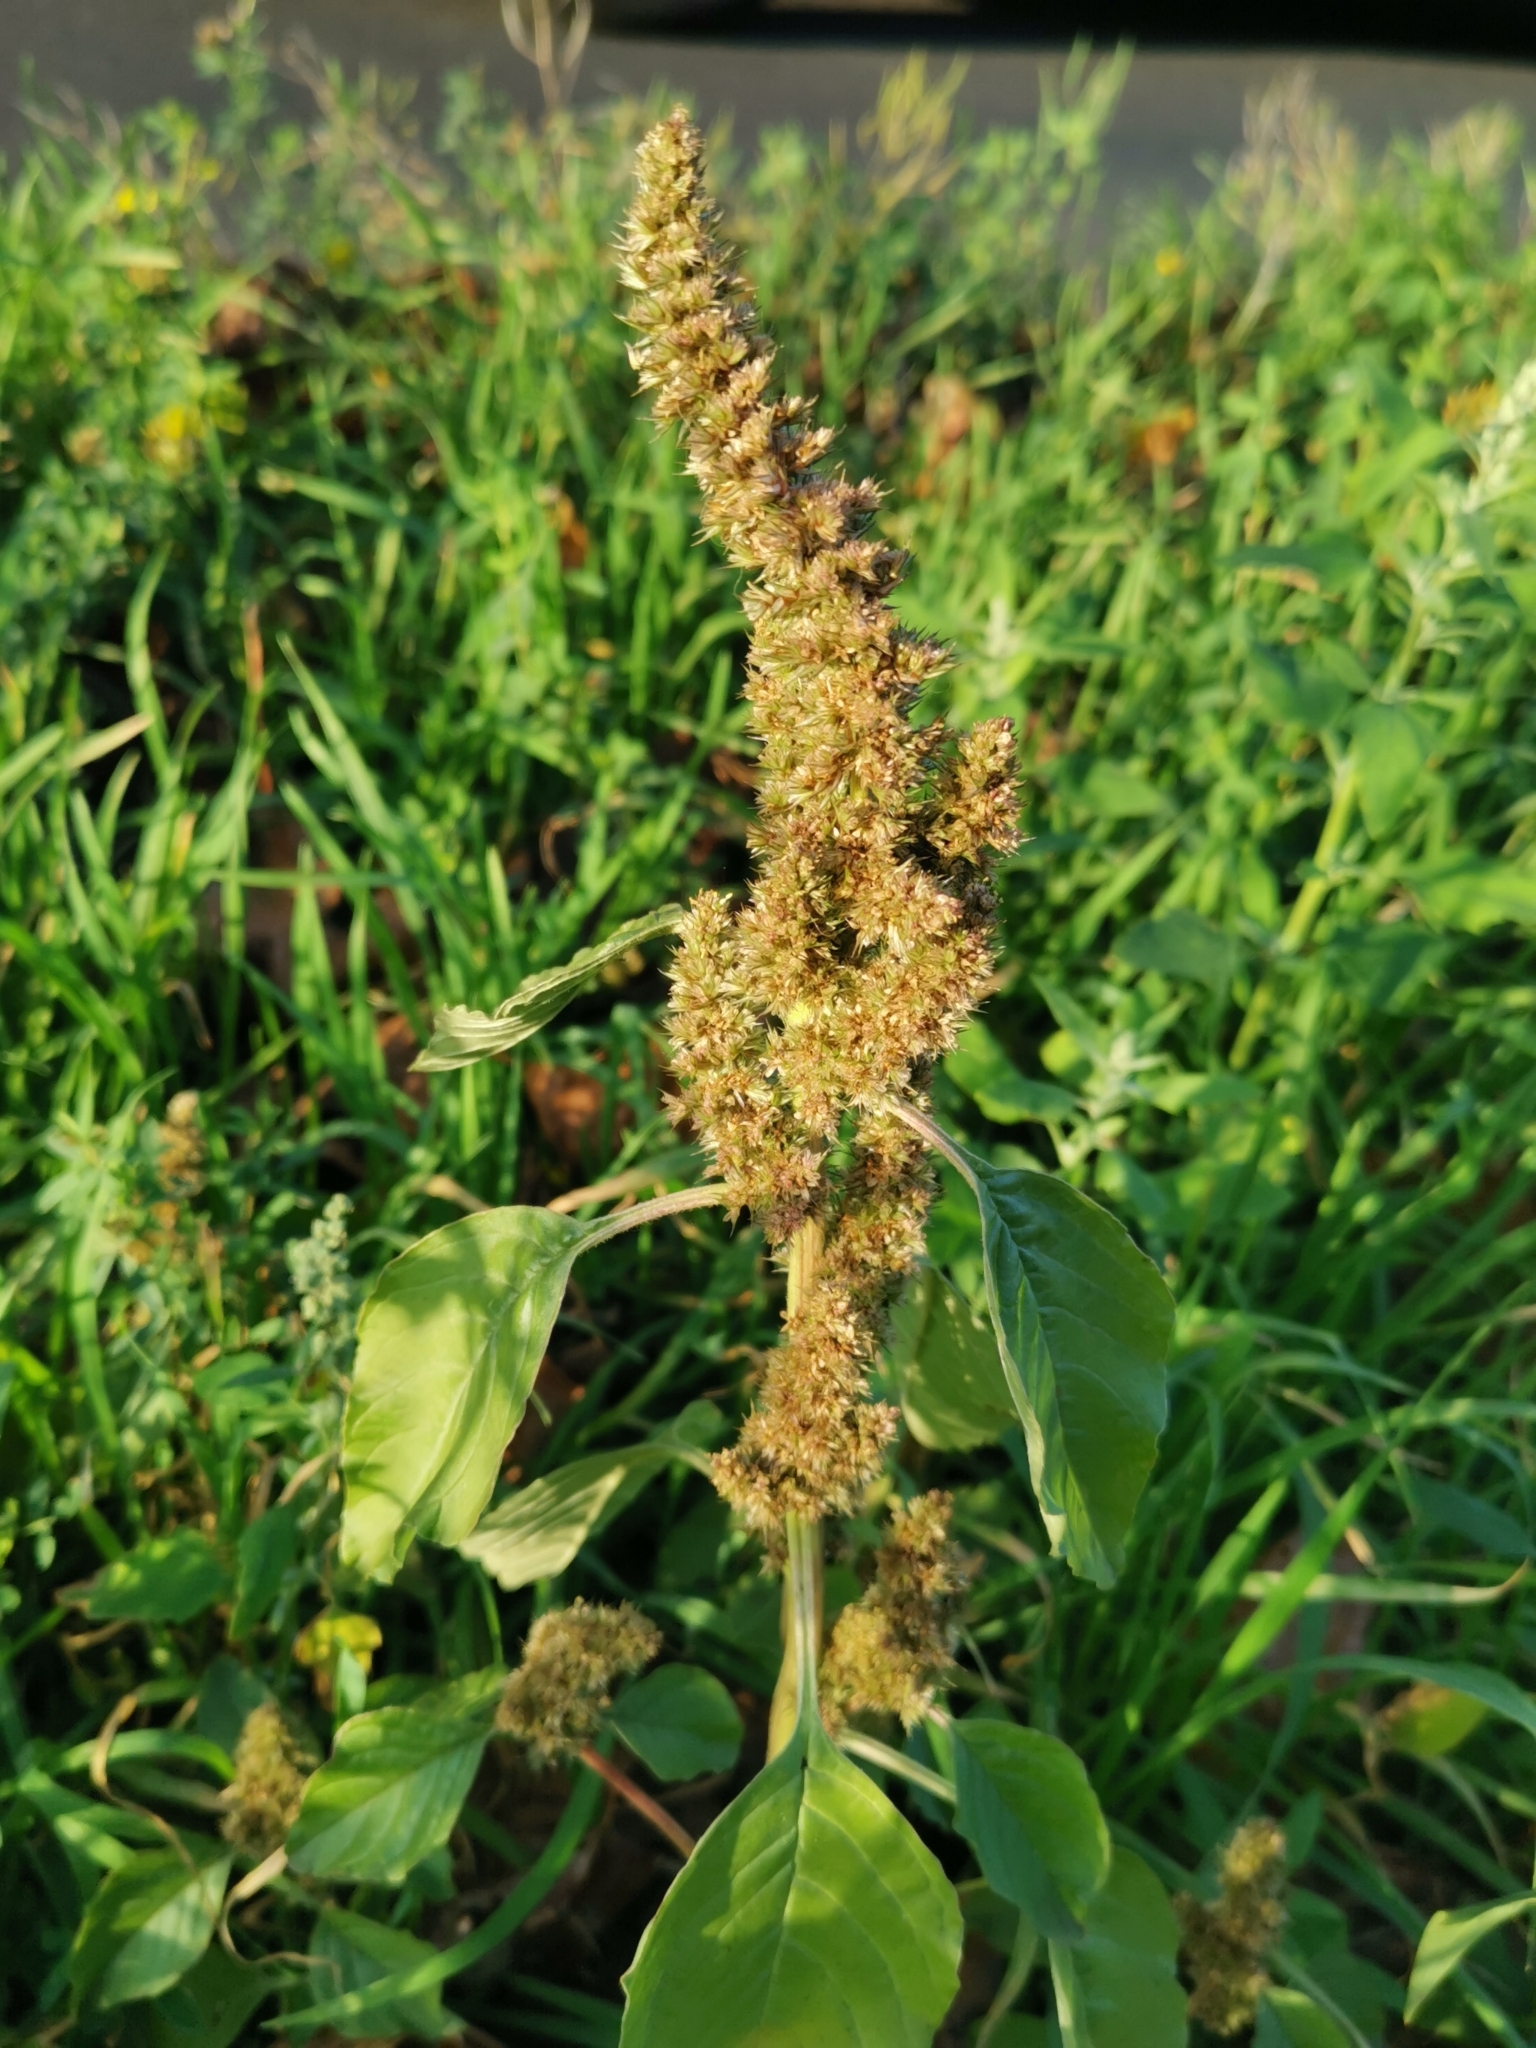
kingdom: Plantae
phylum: Tracheophyta
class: Magnoliopsida
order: Caryophyllales
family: Amaranthaceae
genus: Amaranthus
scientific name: Amaranthus retroflexus
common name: Redroot amaranth
